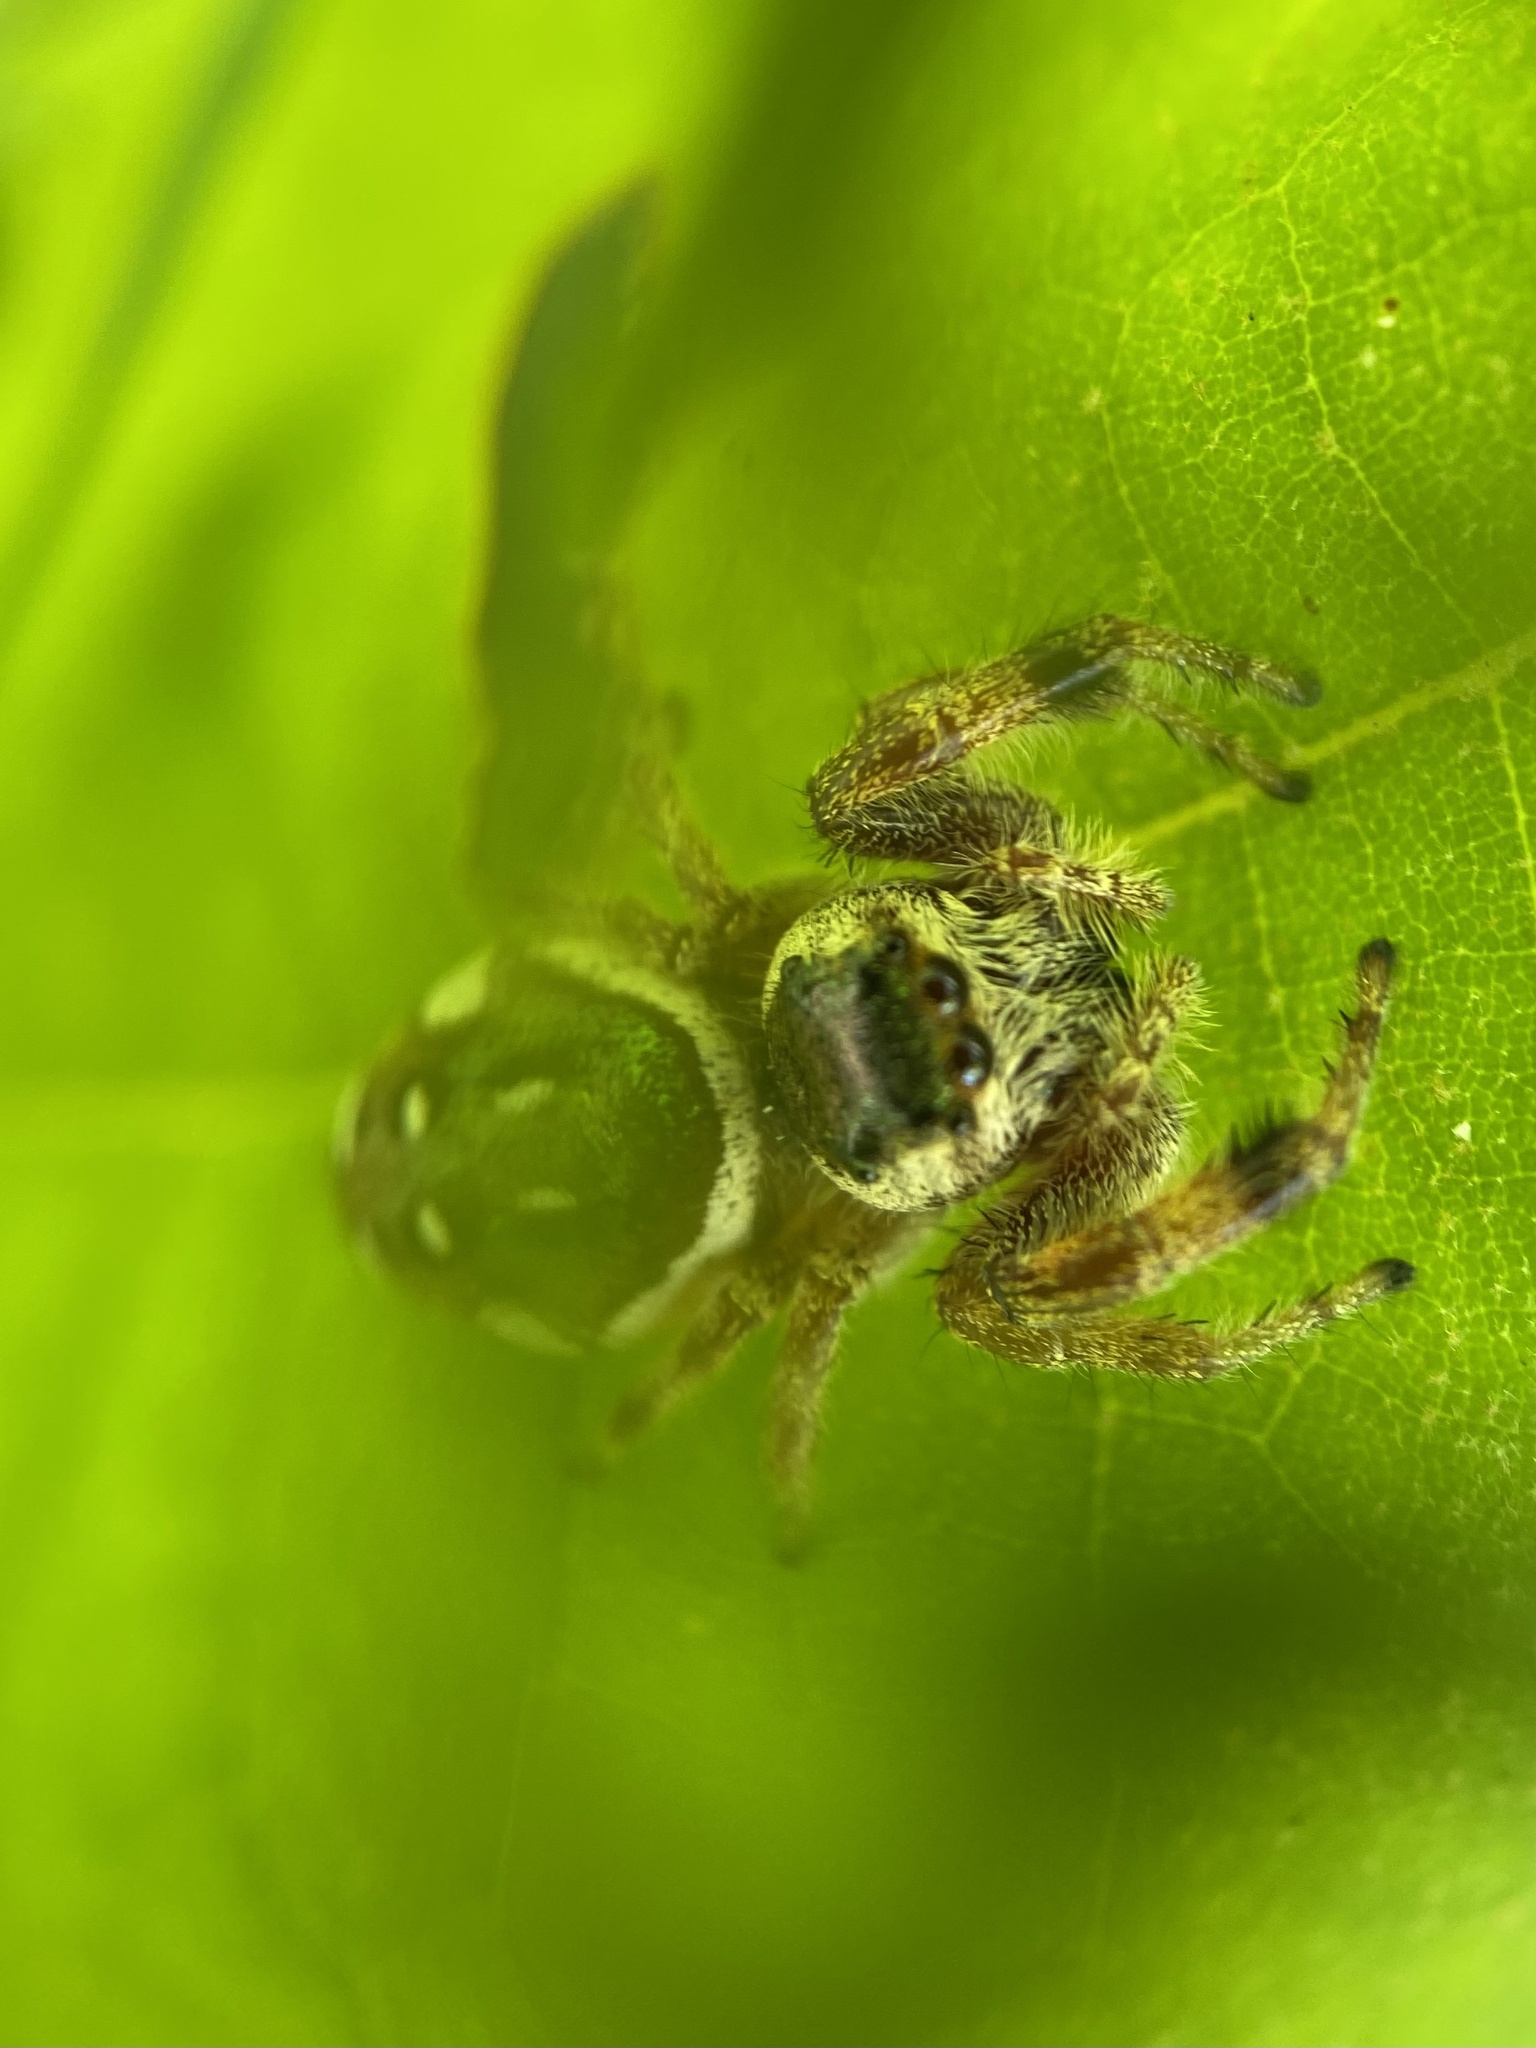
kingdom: Animalia
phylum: Arthropoda
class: Arachnida
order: Araneae
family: Salticidae
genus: Paraphidippus
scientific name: Paraphidippus aurantius
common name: Jumping spiders
